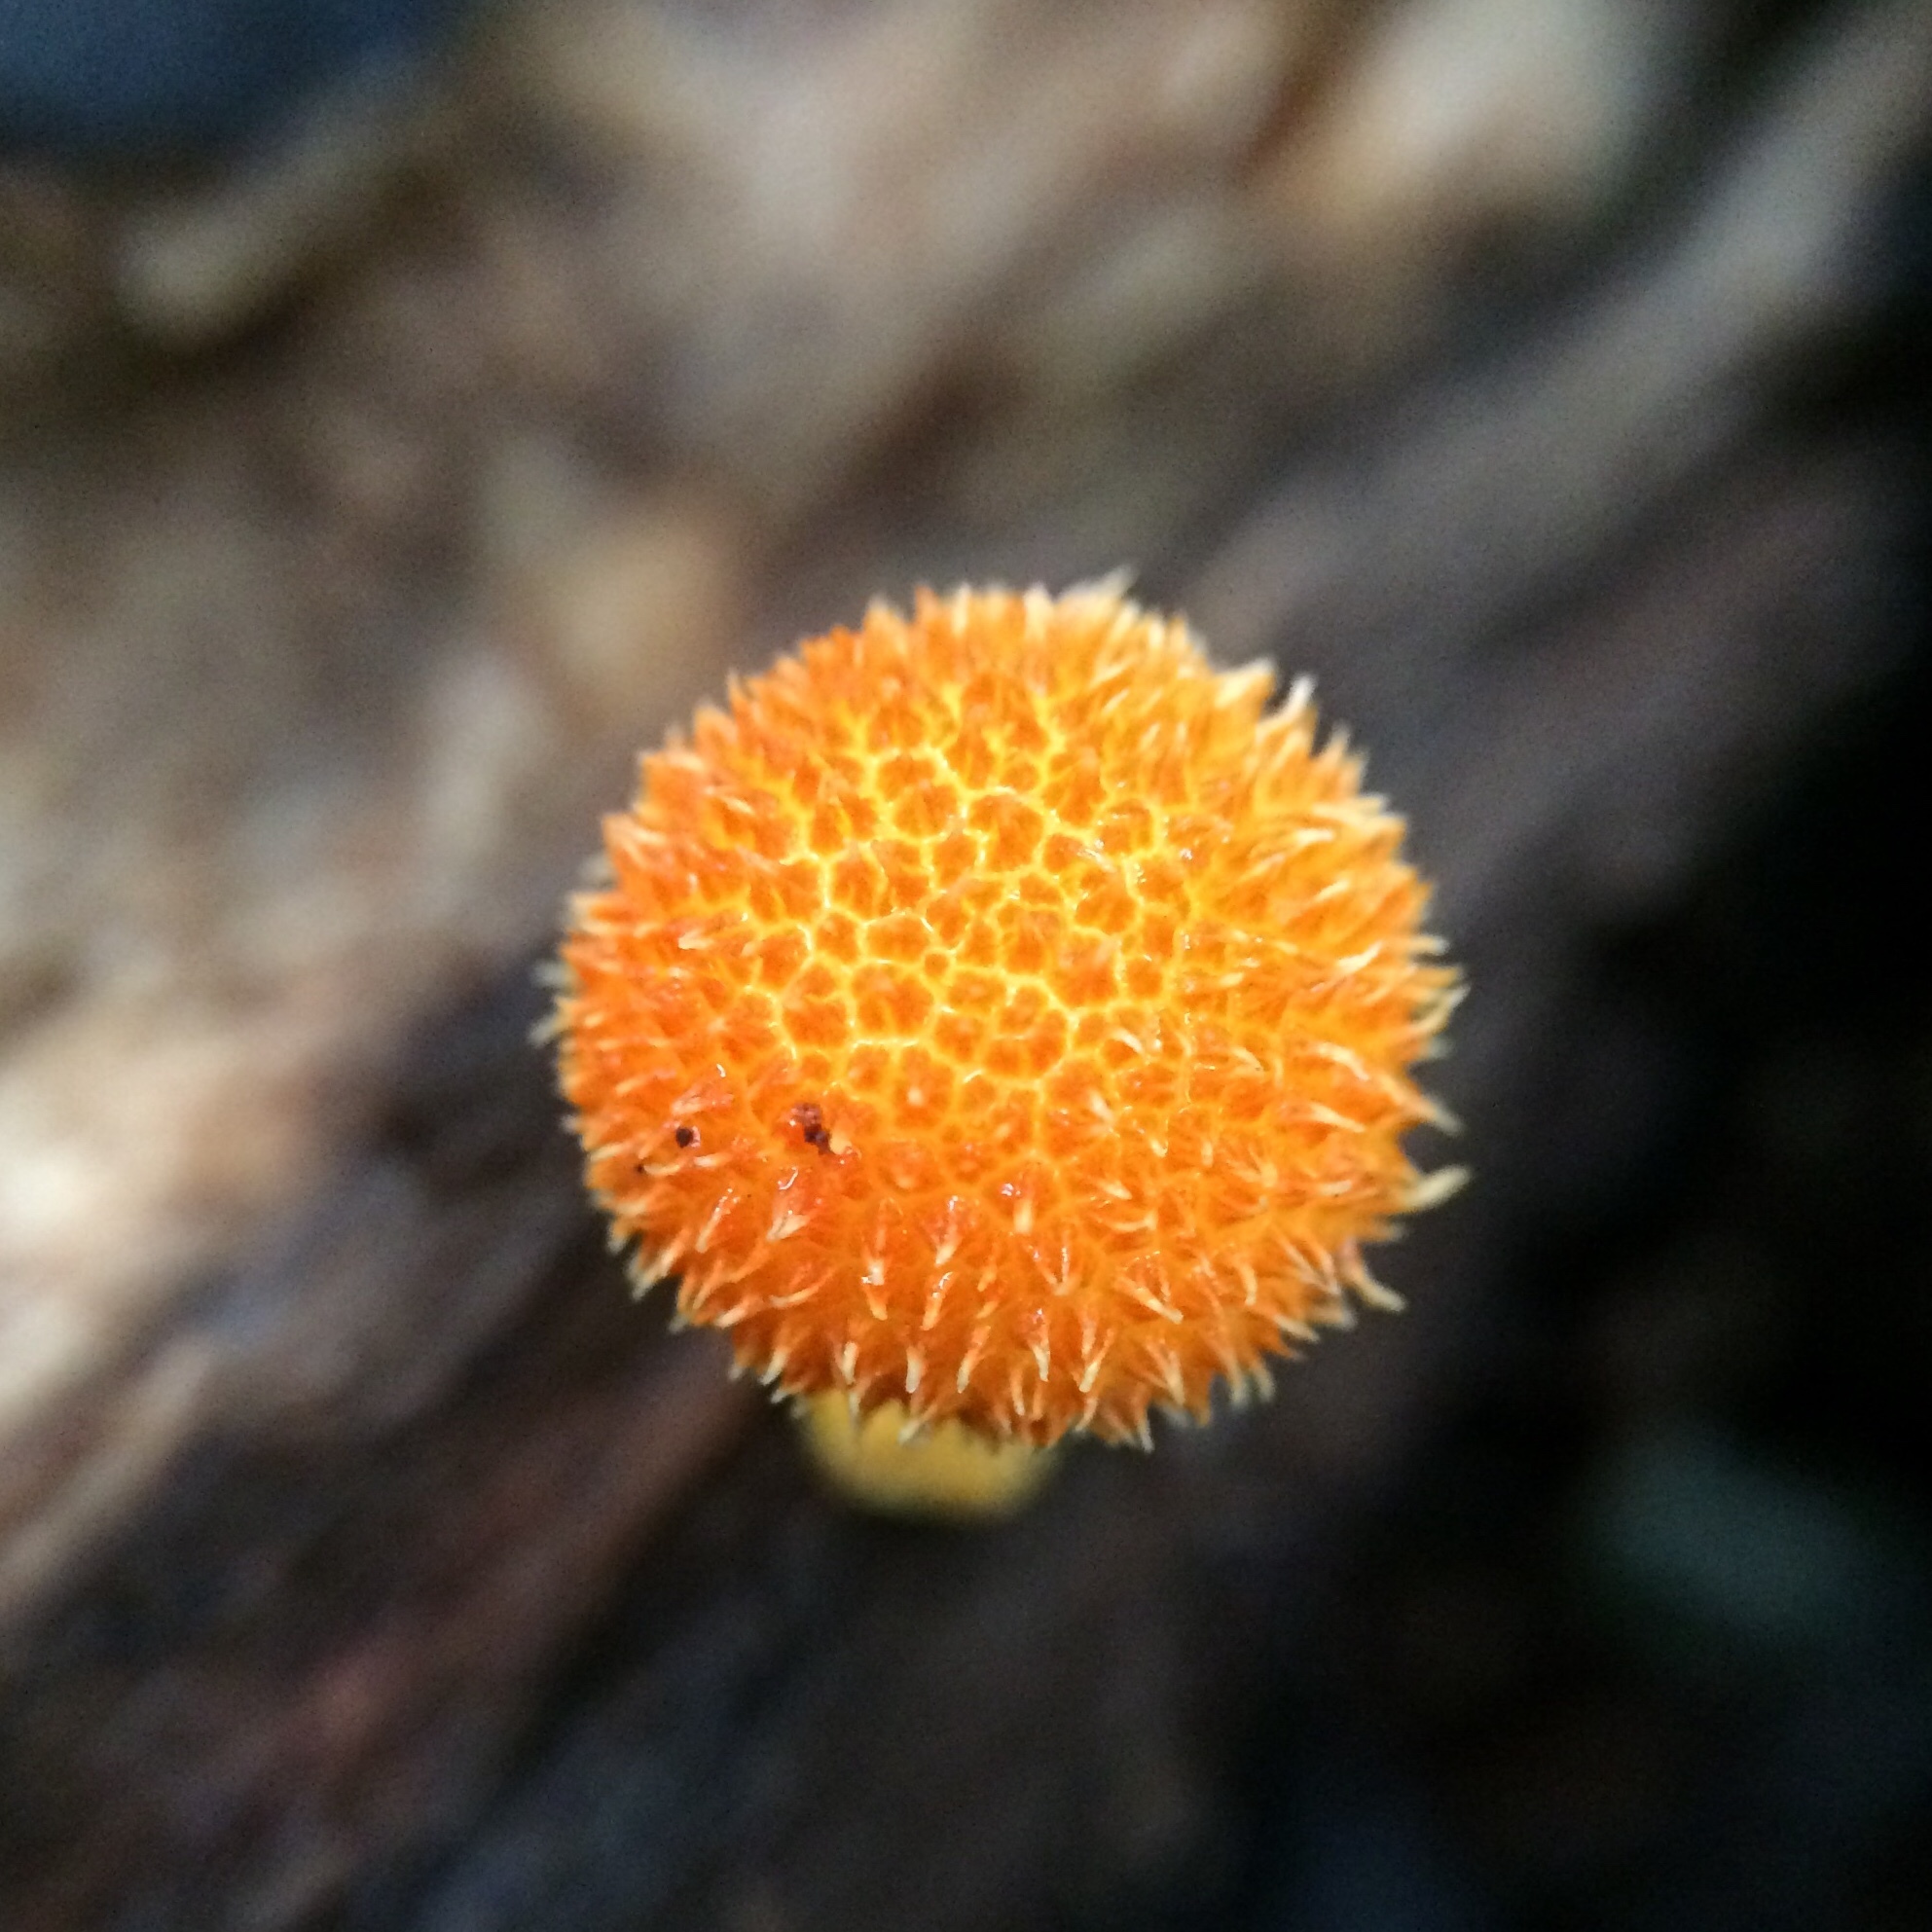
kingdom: Fungi
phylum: Basidiomycota
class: Agaricomycetes
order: Agaricales
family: Physalacriaceae
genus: Cyptotrama
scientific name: Cyptotrama asprata
